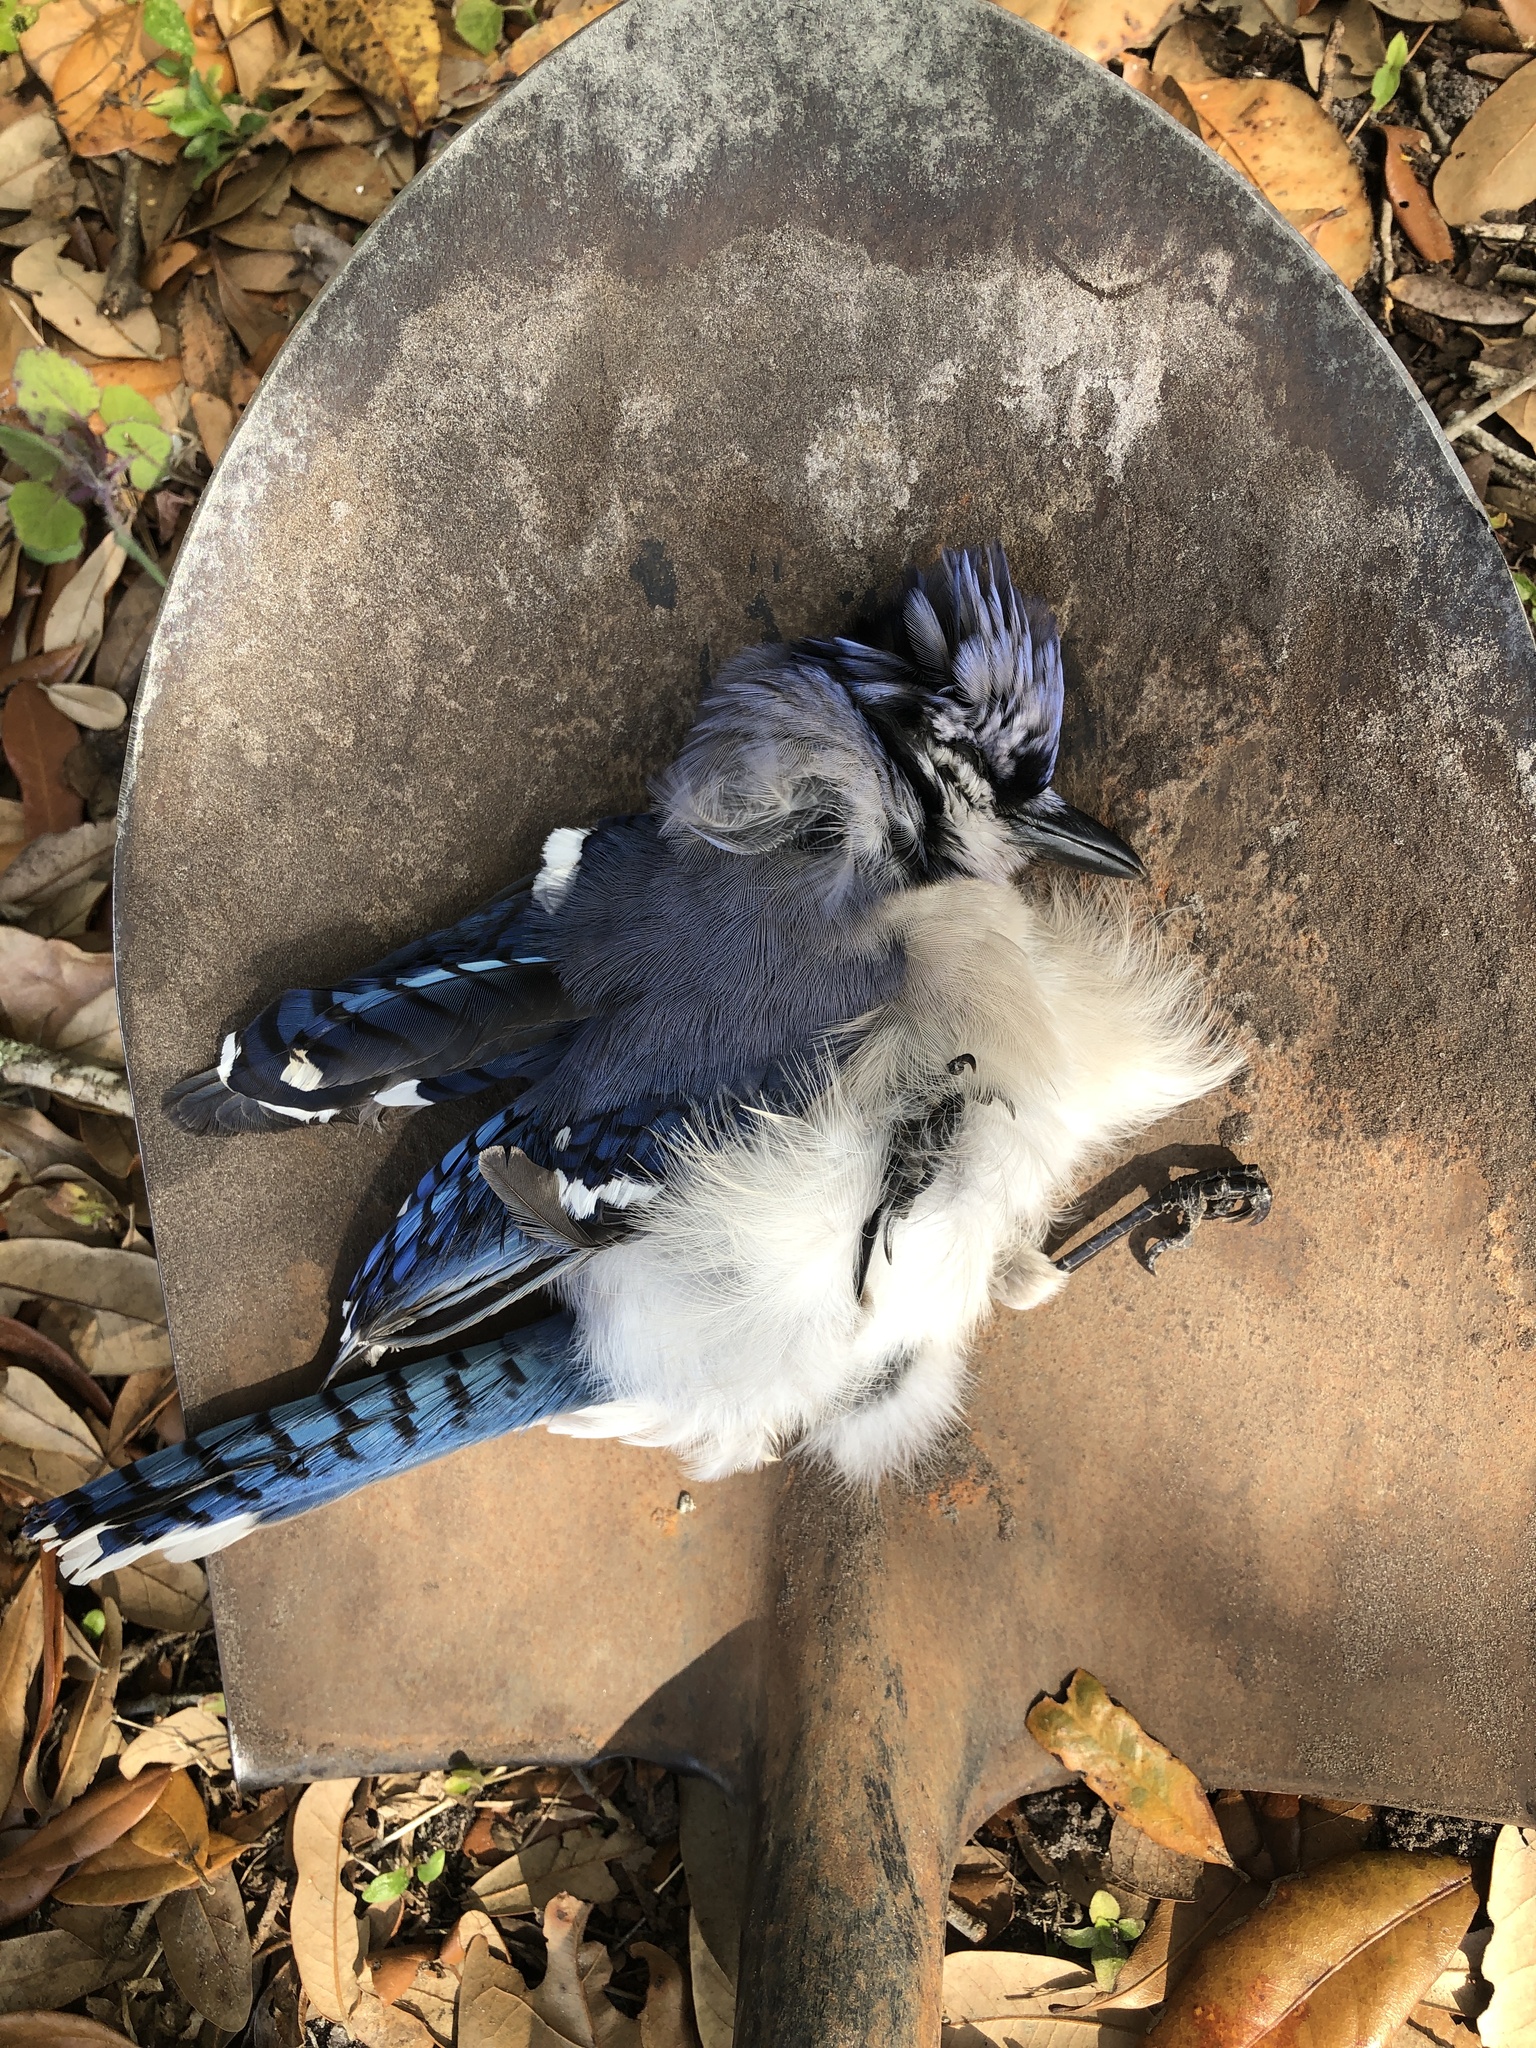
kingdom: Animalia
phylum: Chordata
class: Aves
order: Passeriformes
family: Corvidae
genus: Cyanocitta
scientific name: Cyanocitta cristata
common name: Blue jay
